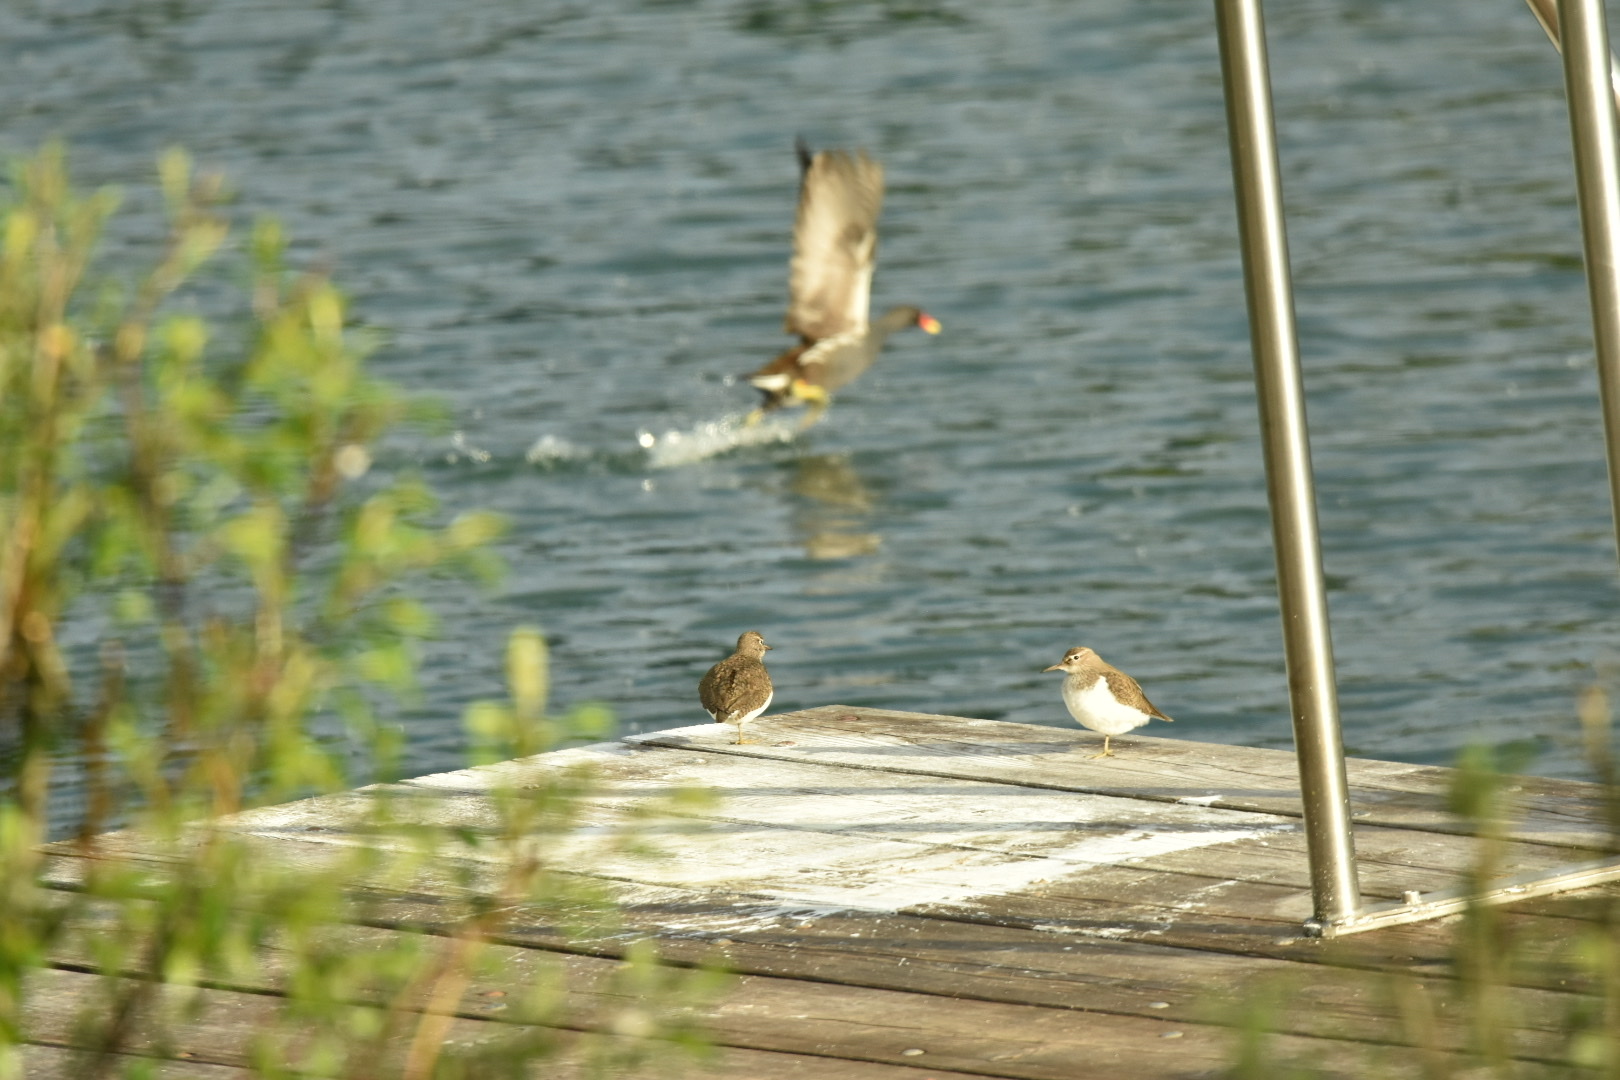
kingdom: Animalia
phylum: Chordata
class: Aves
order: Gruiformes
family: Rallidae
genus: Gallinula
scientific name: Gallinula chloropus
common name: Common moorhen
